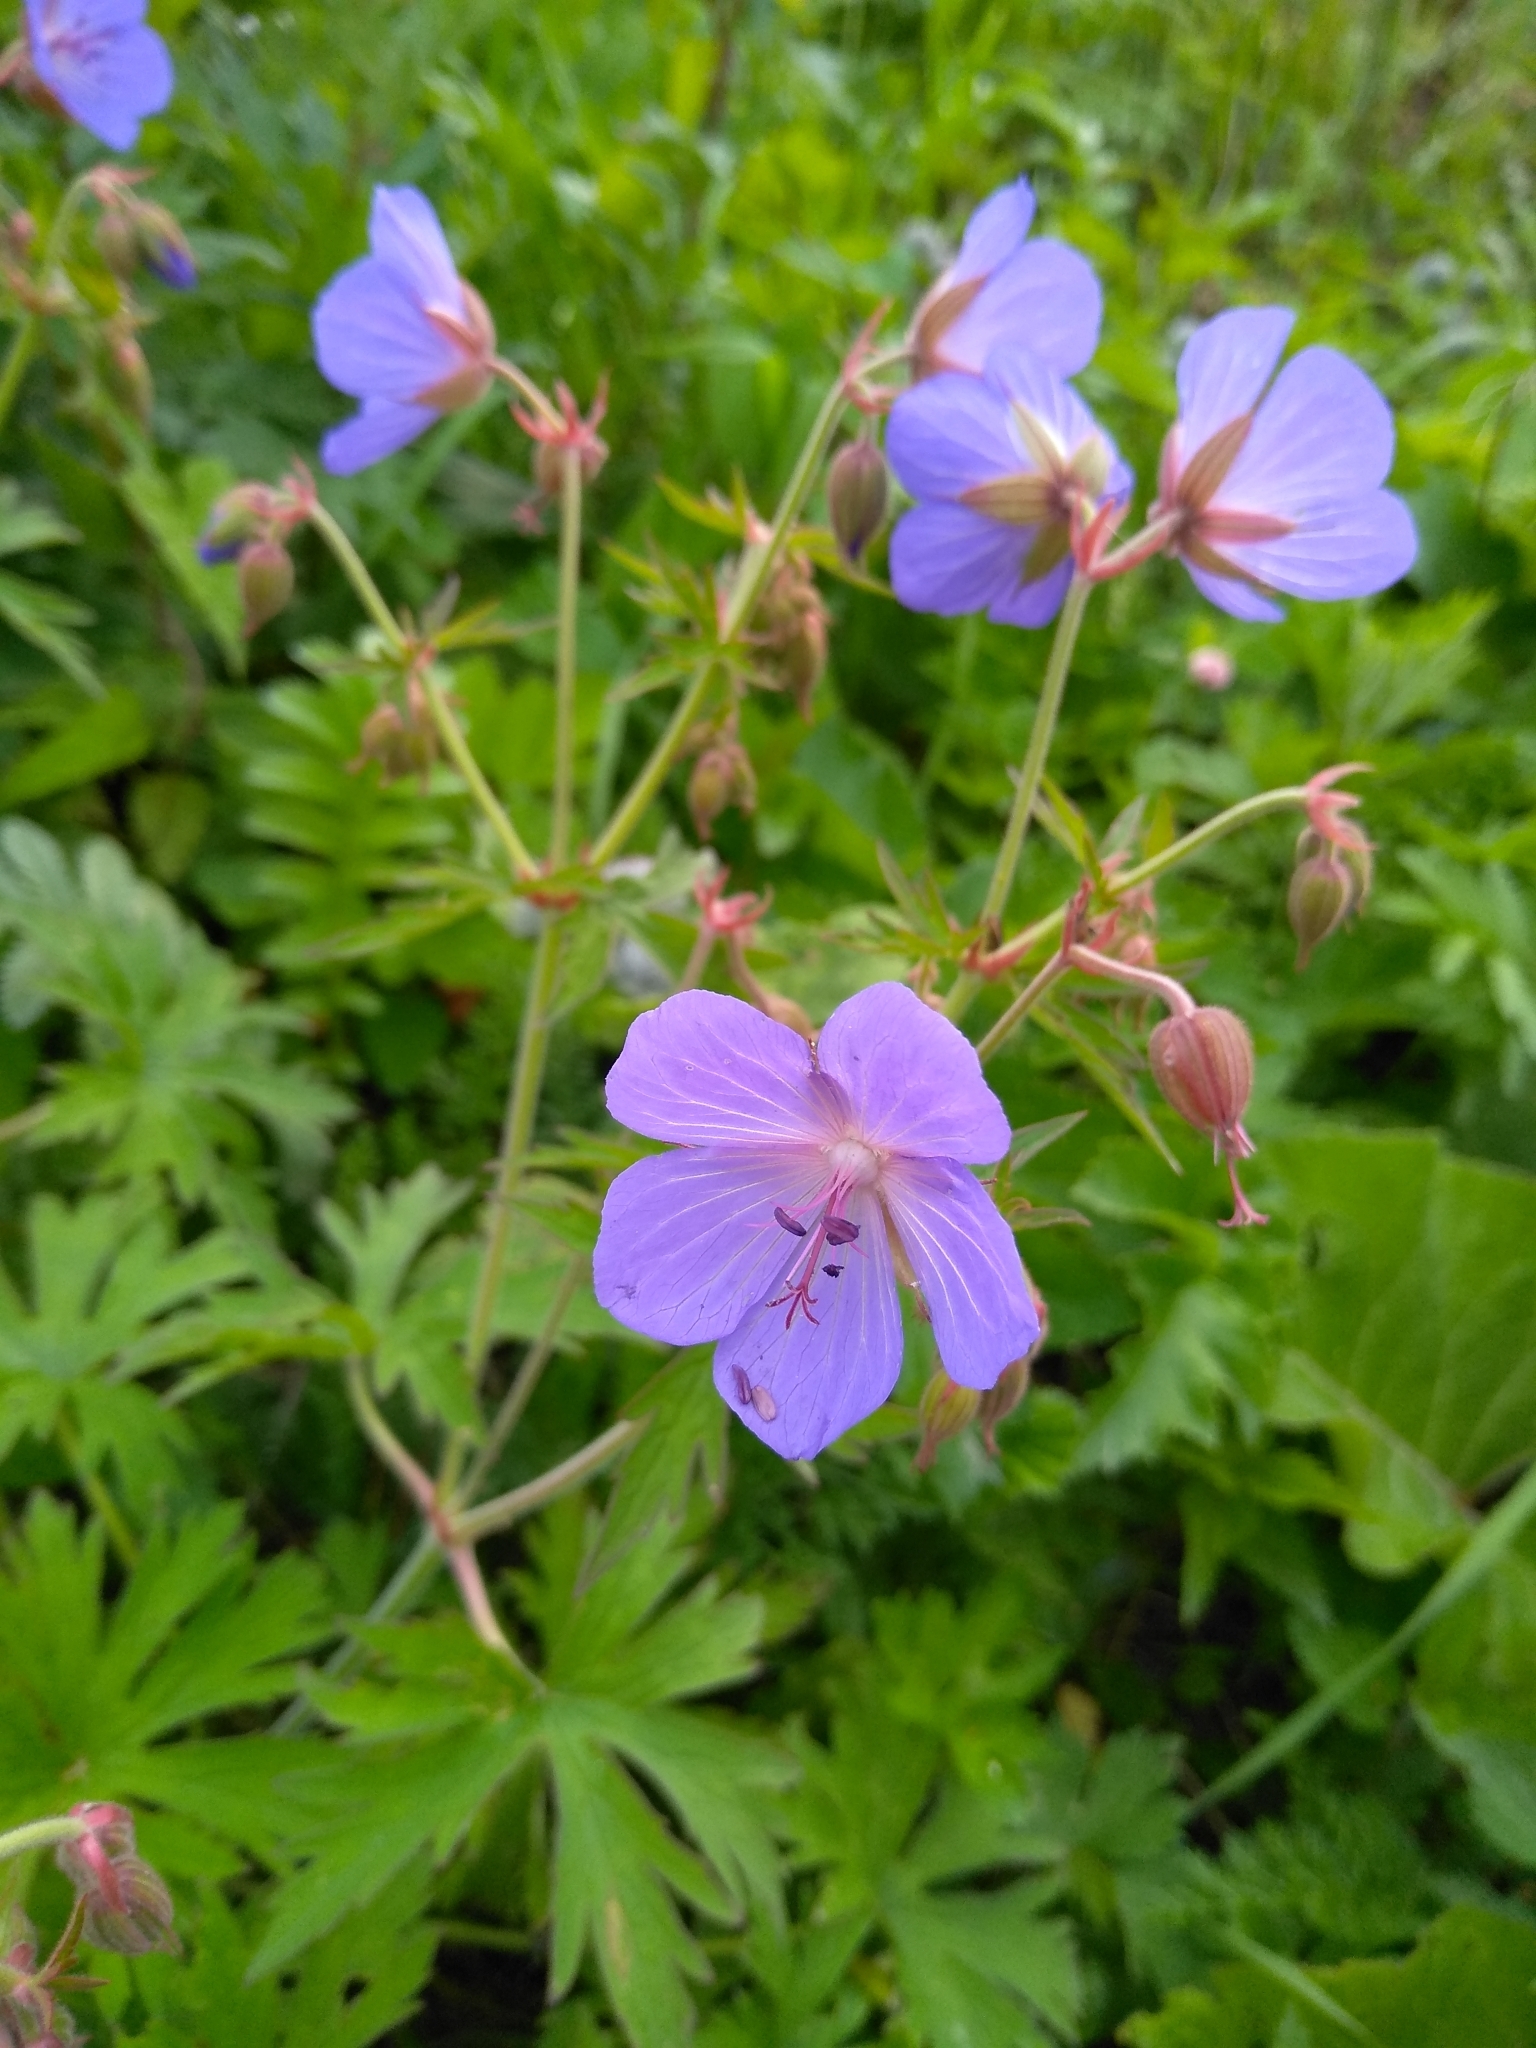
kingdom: Plantae
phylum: Tracheophyta
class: Magnoliopsida
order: Geraniales
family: Geraniaceae
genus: Geranium
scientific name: Geranium pratense
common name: Meadow crane's-bill
